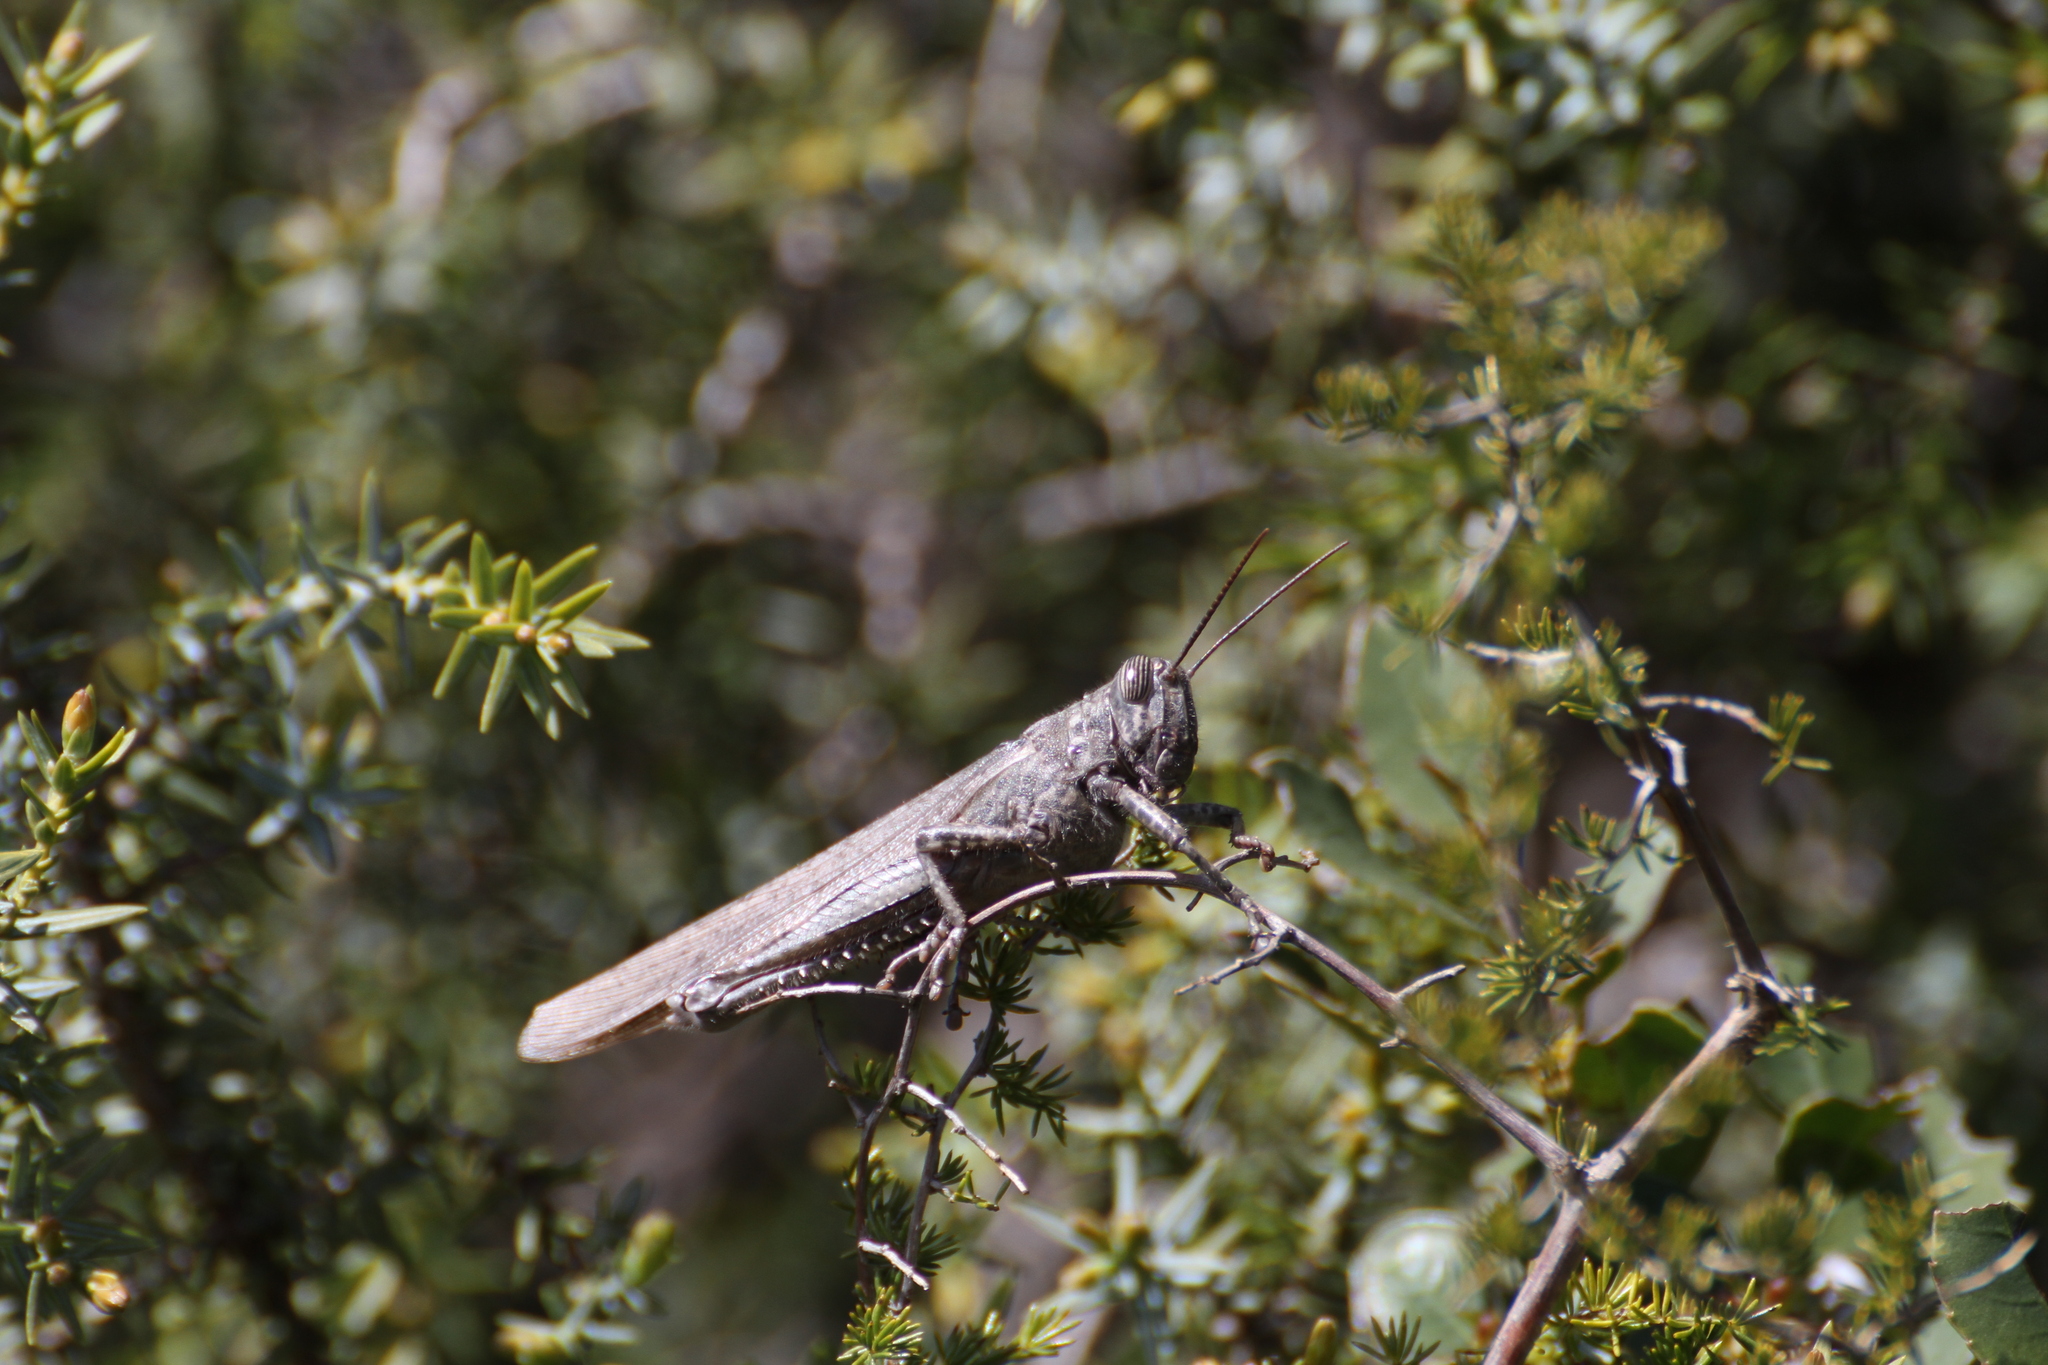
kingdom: Animalia
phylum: Arthropoda
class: Insecta
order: Orthoptera
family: Acrididae
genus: Anacridium
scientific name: Anacridium aegyptium
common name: Egyptian grasshopper
